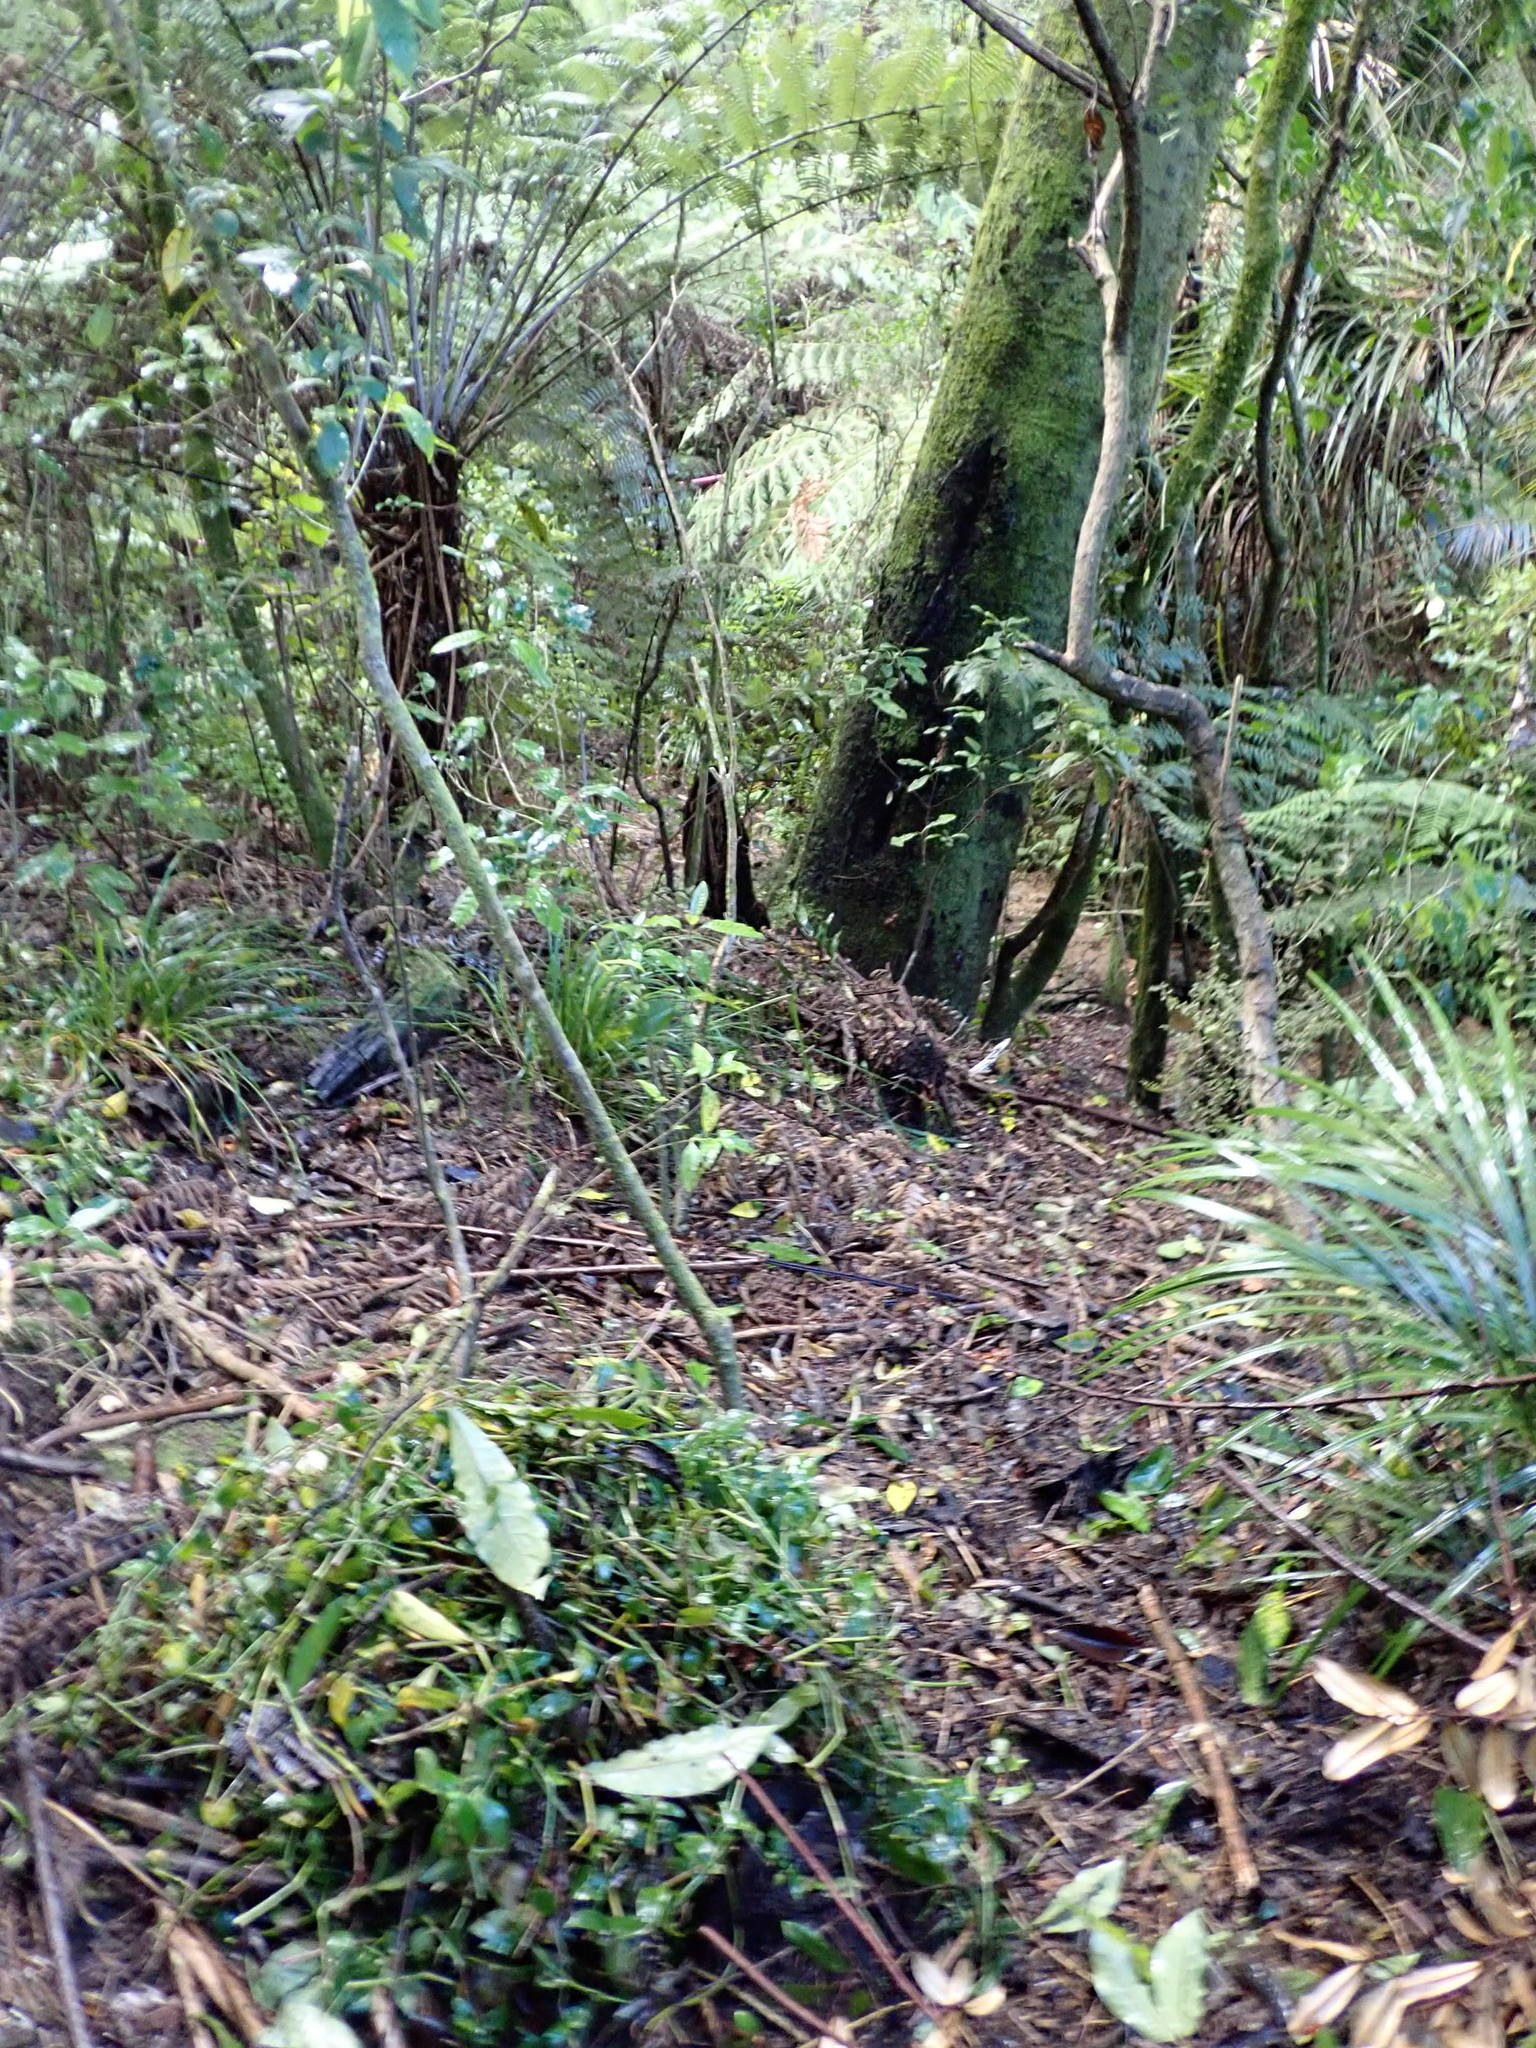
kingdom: Plantae
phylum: Tracheophyta
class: Liliopsida
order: Commelinales
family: Commelinaceae
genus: Tradescantia
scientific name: Tradescantia fluminensis
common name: Wandering-jew
